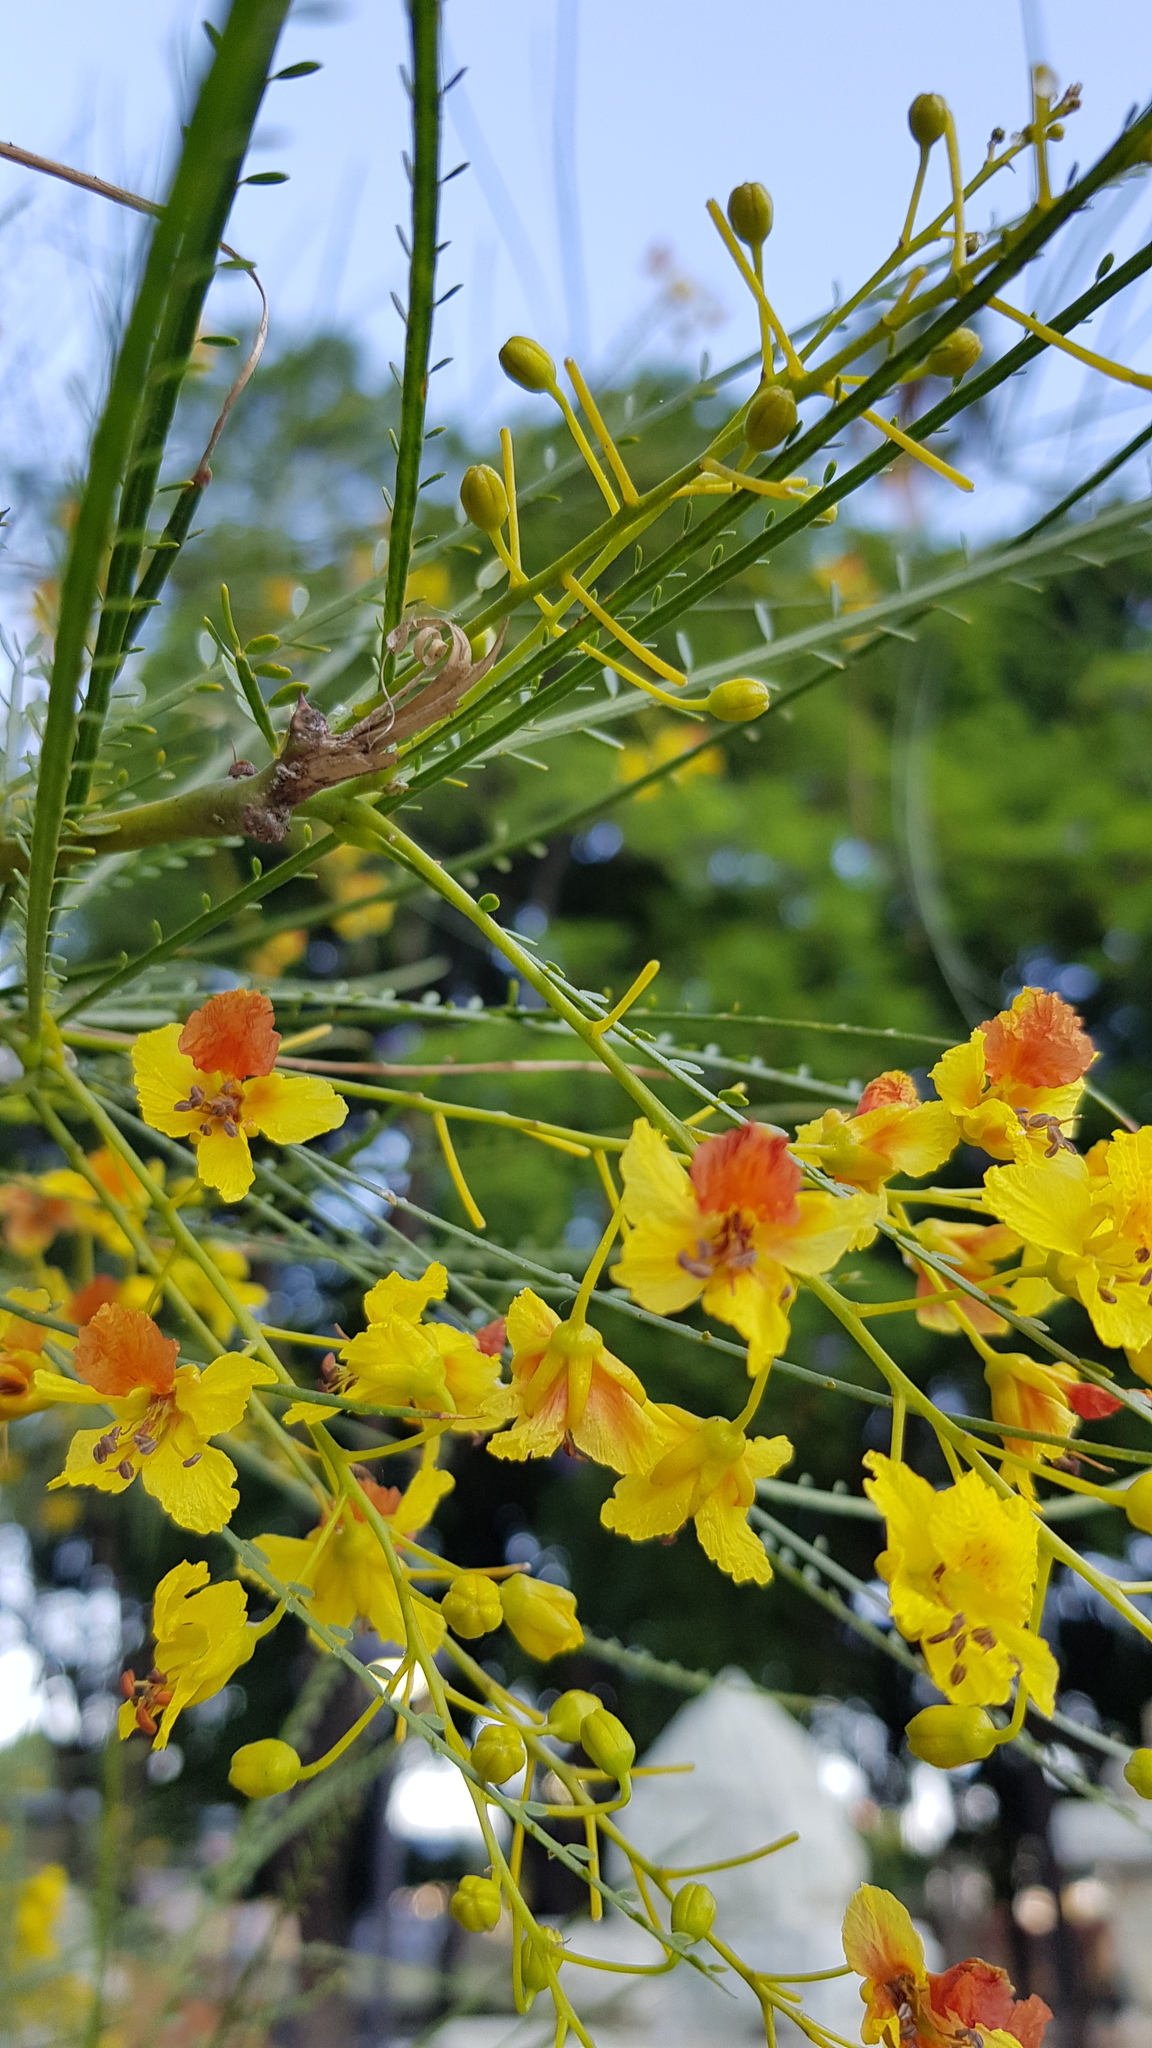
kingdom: Plantae
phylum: Tracheophyta
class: Magnoliopsida
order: Fabales
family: Fabaceae
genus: Parkinsonia
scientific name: Parkinsonia aculeata
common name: Jerusalem thorn
